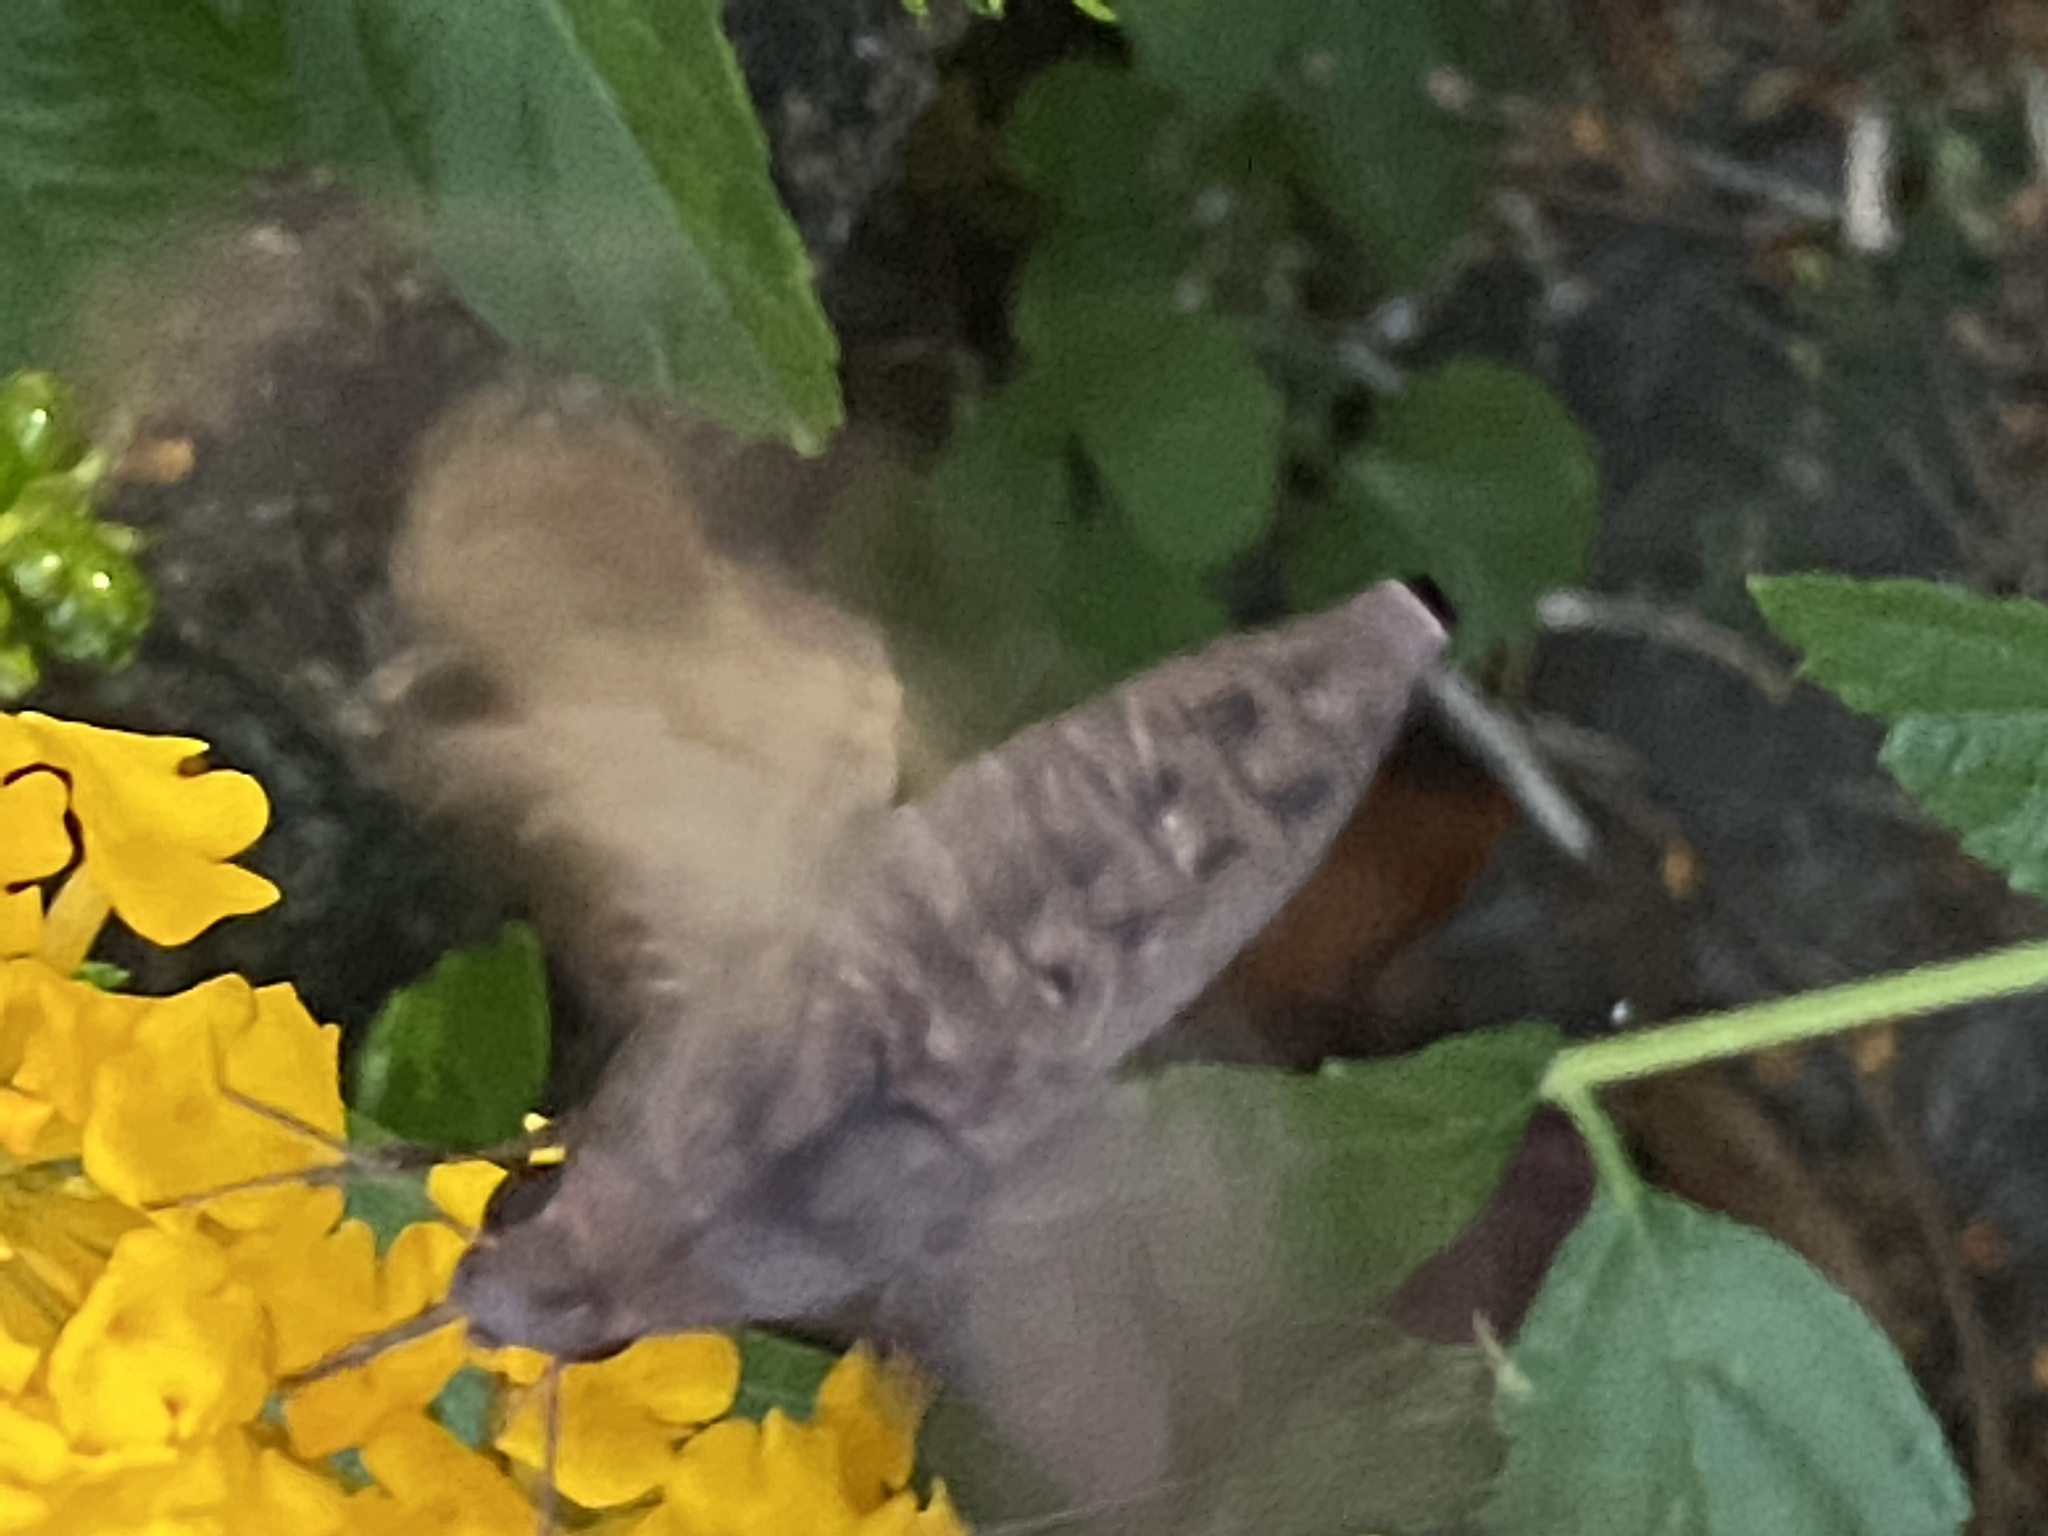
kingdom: Animalia
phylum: Arthropoda
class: Insecta
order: Lepidoptera
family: Sphingidae
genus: Enyo
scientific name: Enyo lugubris
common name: Mournful sphinx
